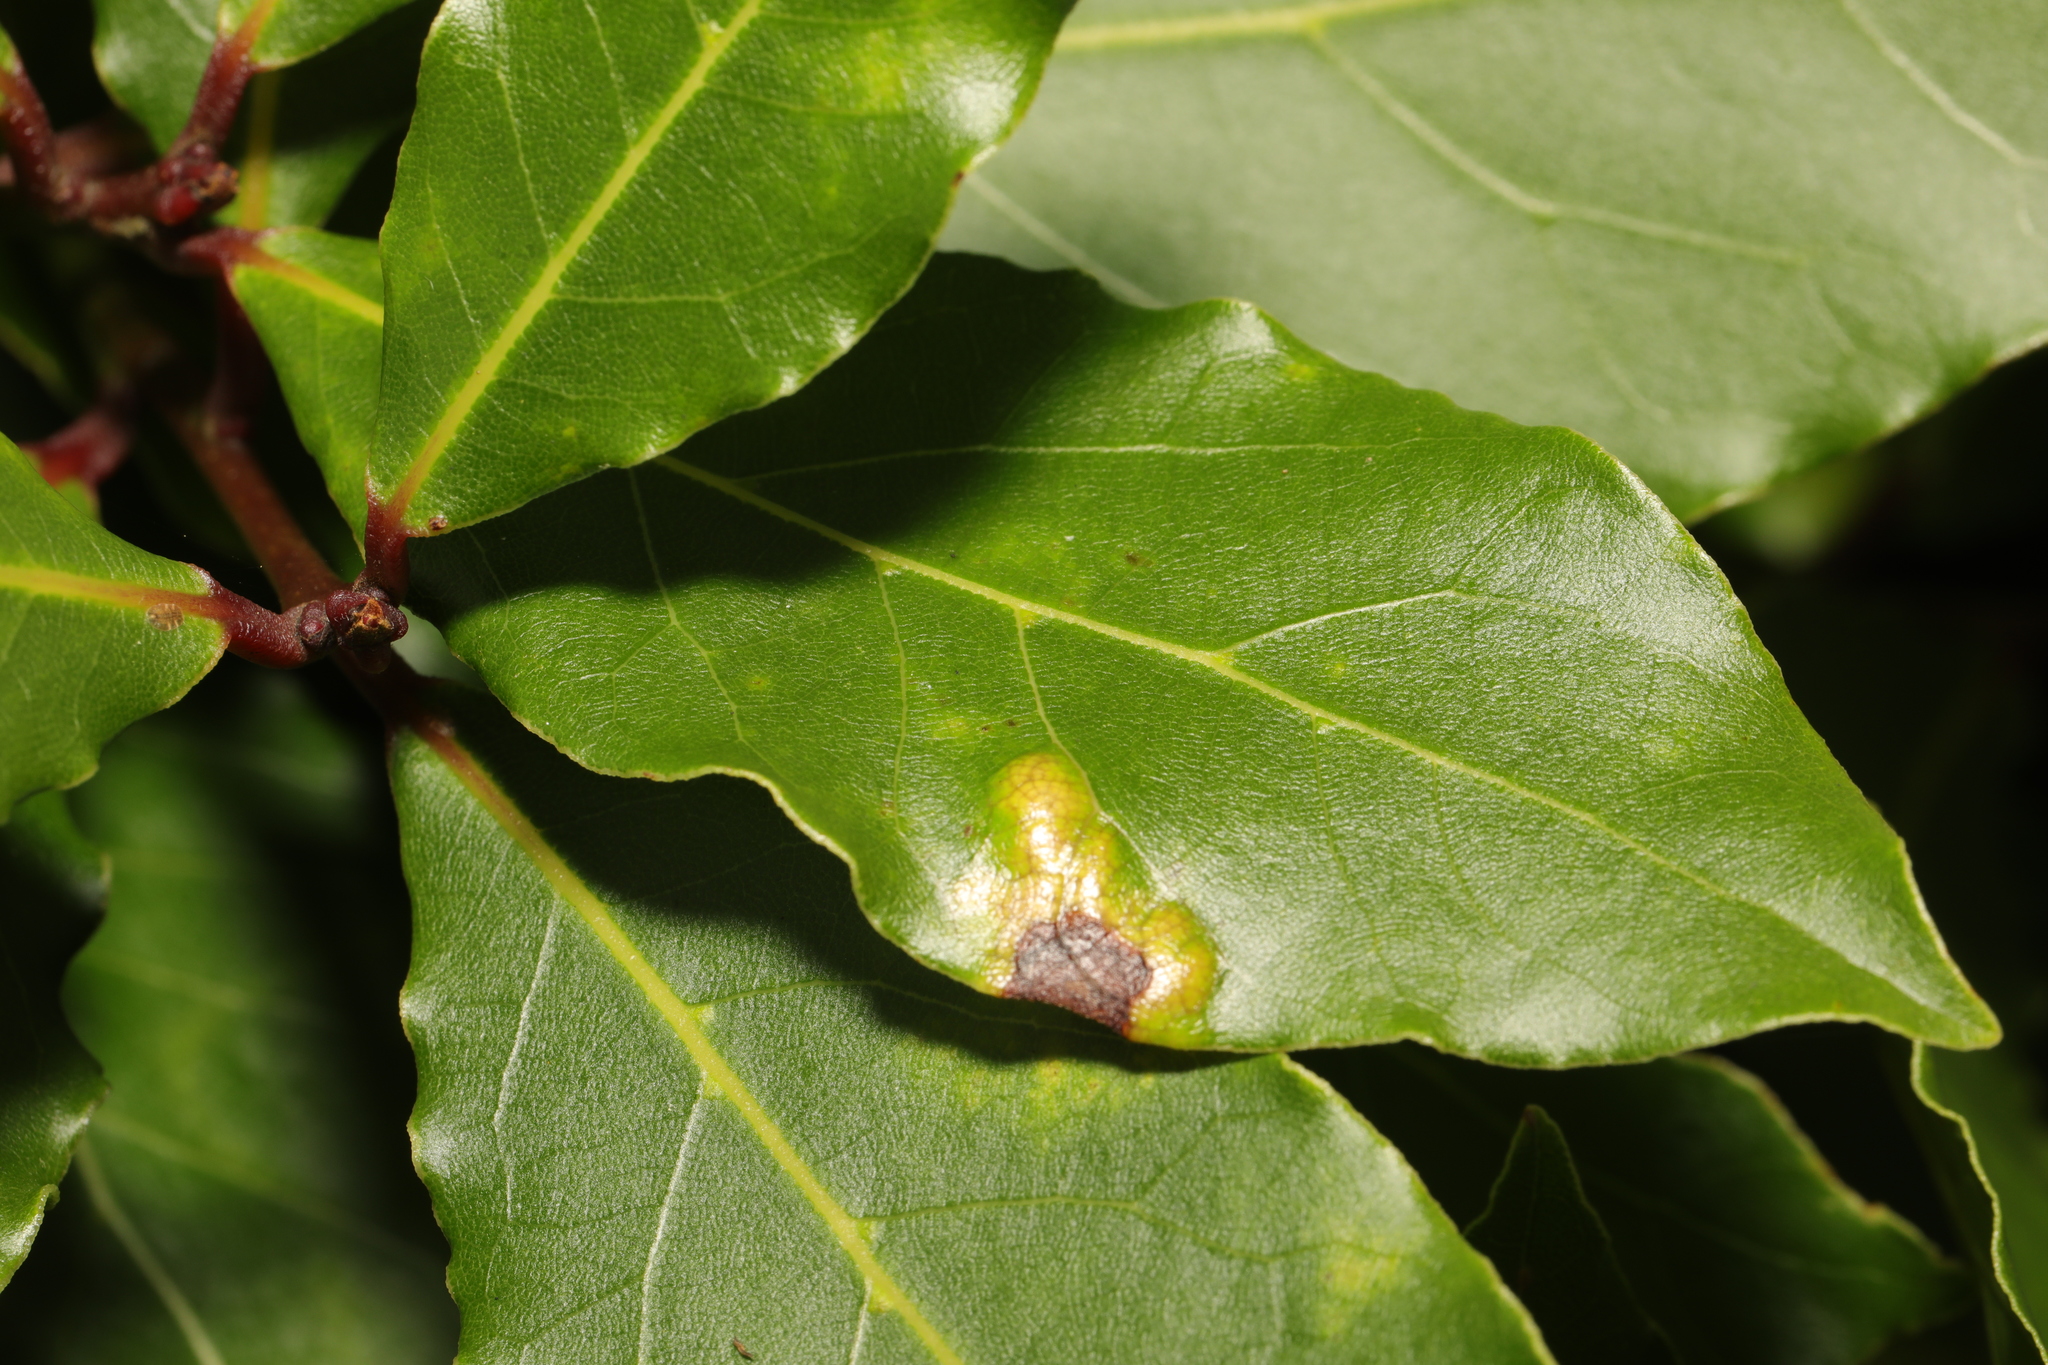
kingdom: Plantae
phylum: Tracheophyta
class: Magnoliopsida
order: Laurales
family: Lauraceae
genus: Laurus
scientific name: Laurus nobilis
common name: Bay
